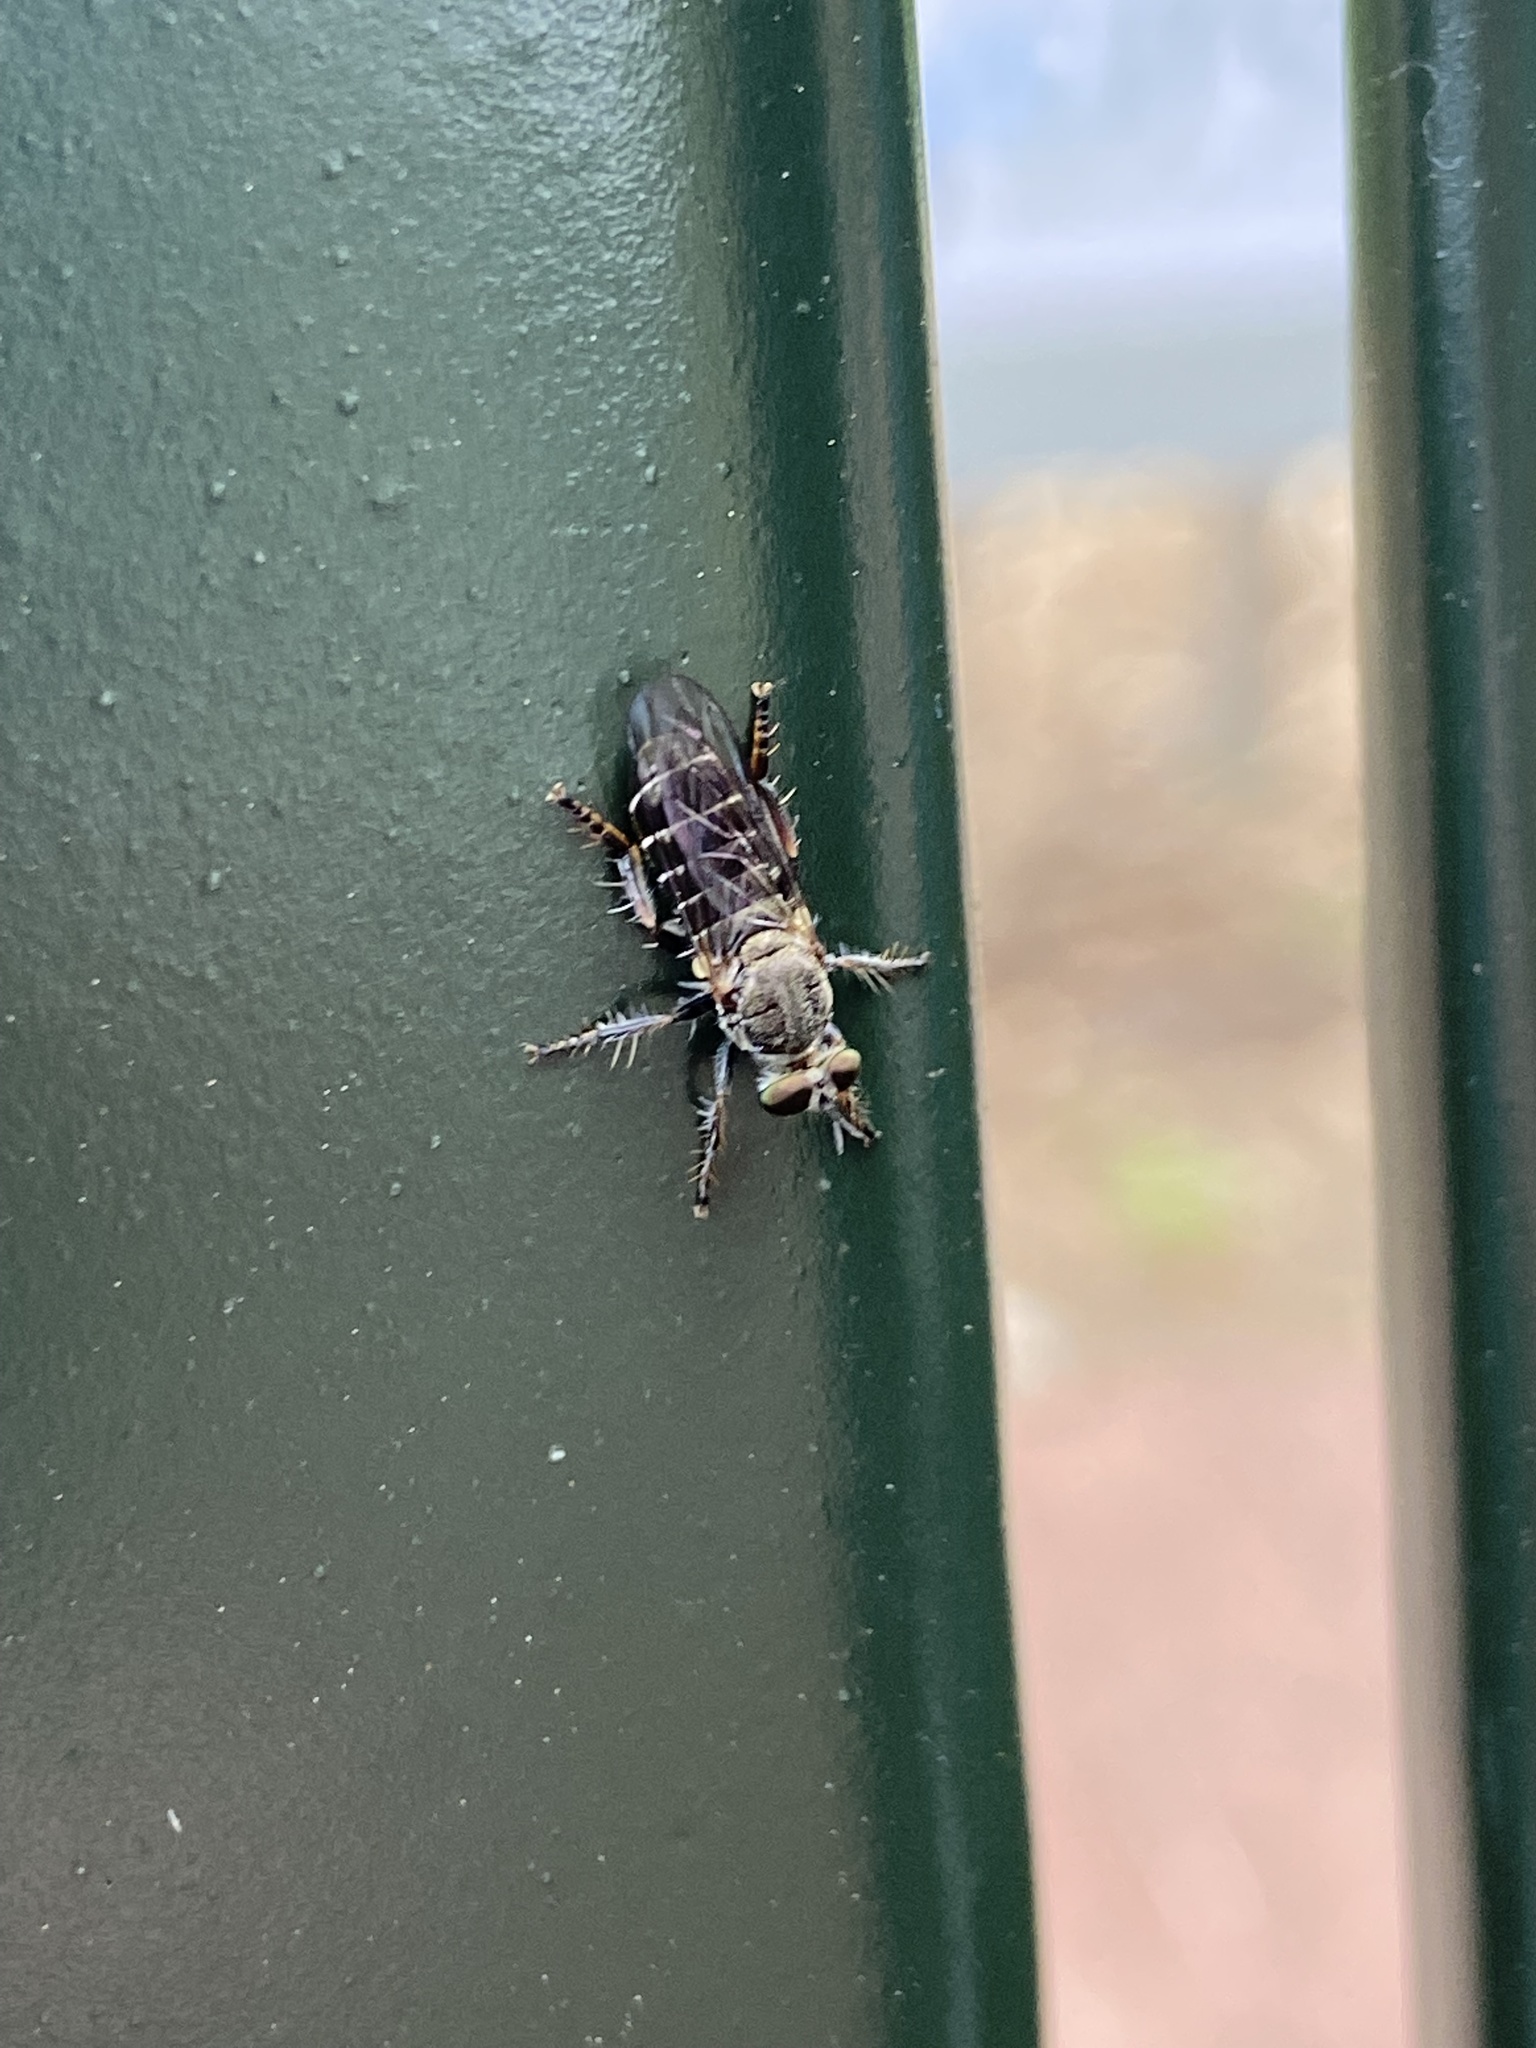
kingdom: Animalia
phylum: Arthropoda
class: Insecta
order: Diptera
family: Asilidae
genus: Atomosia
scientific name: Atomosia
